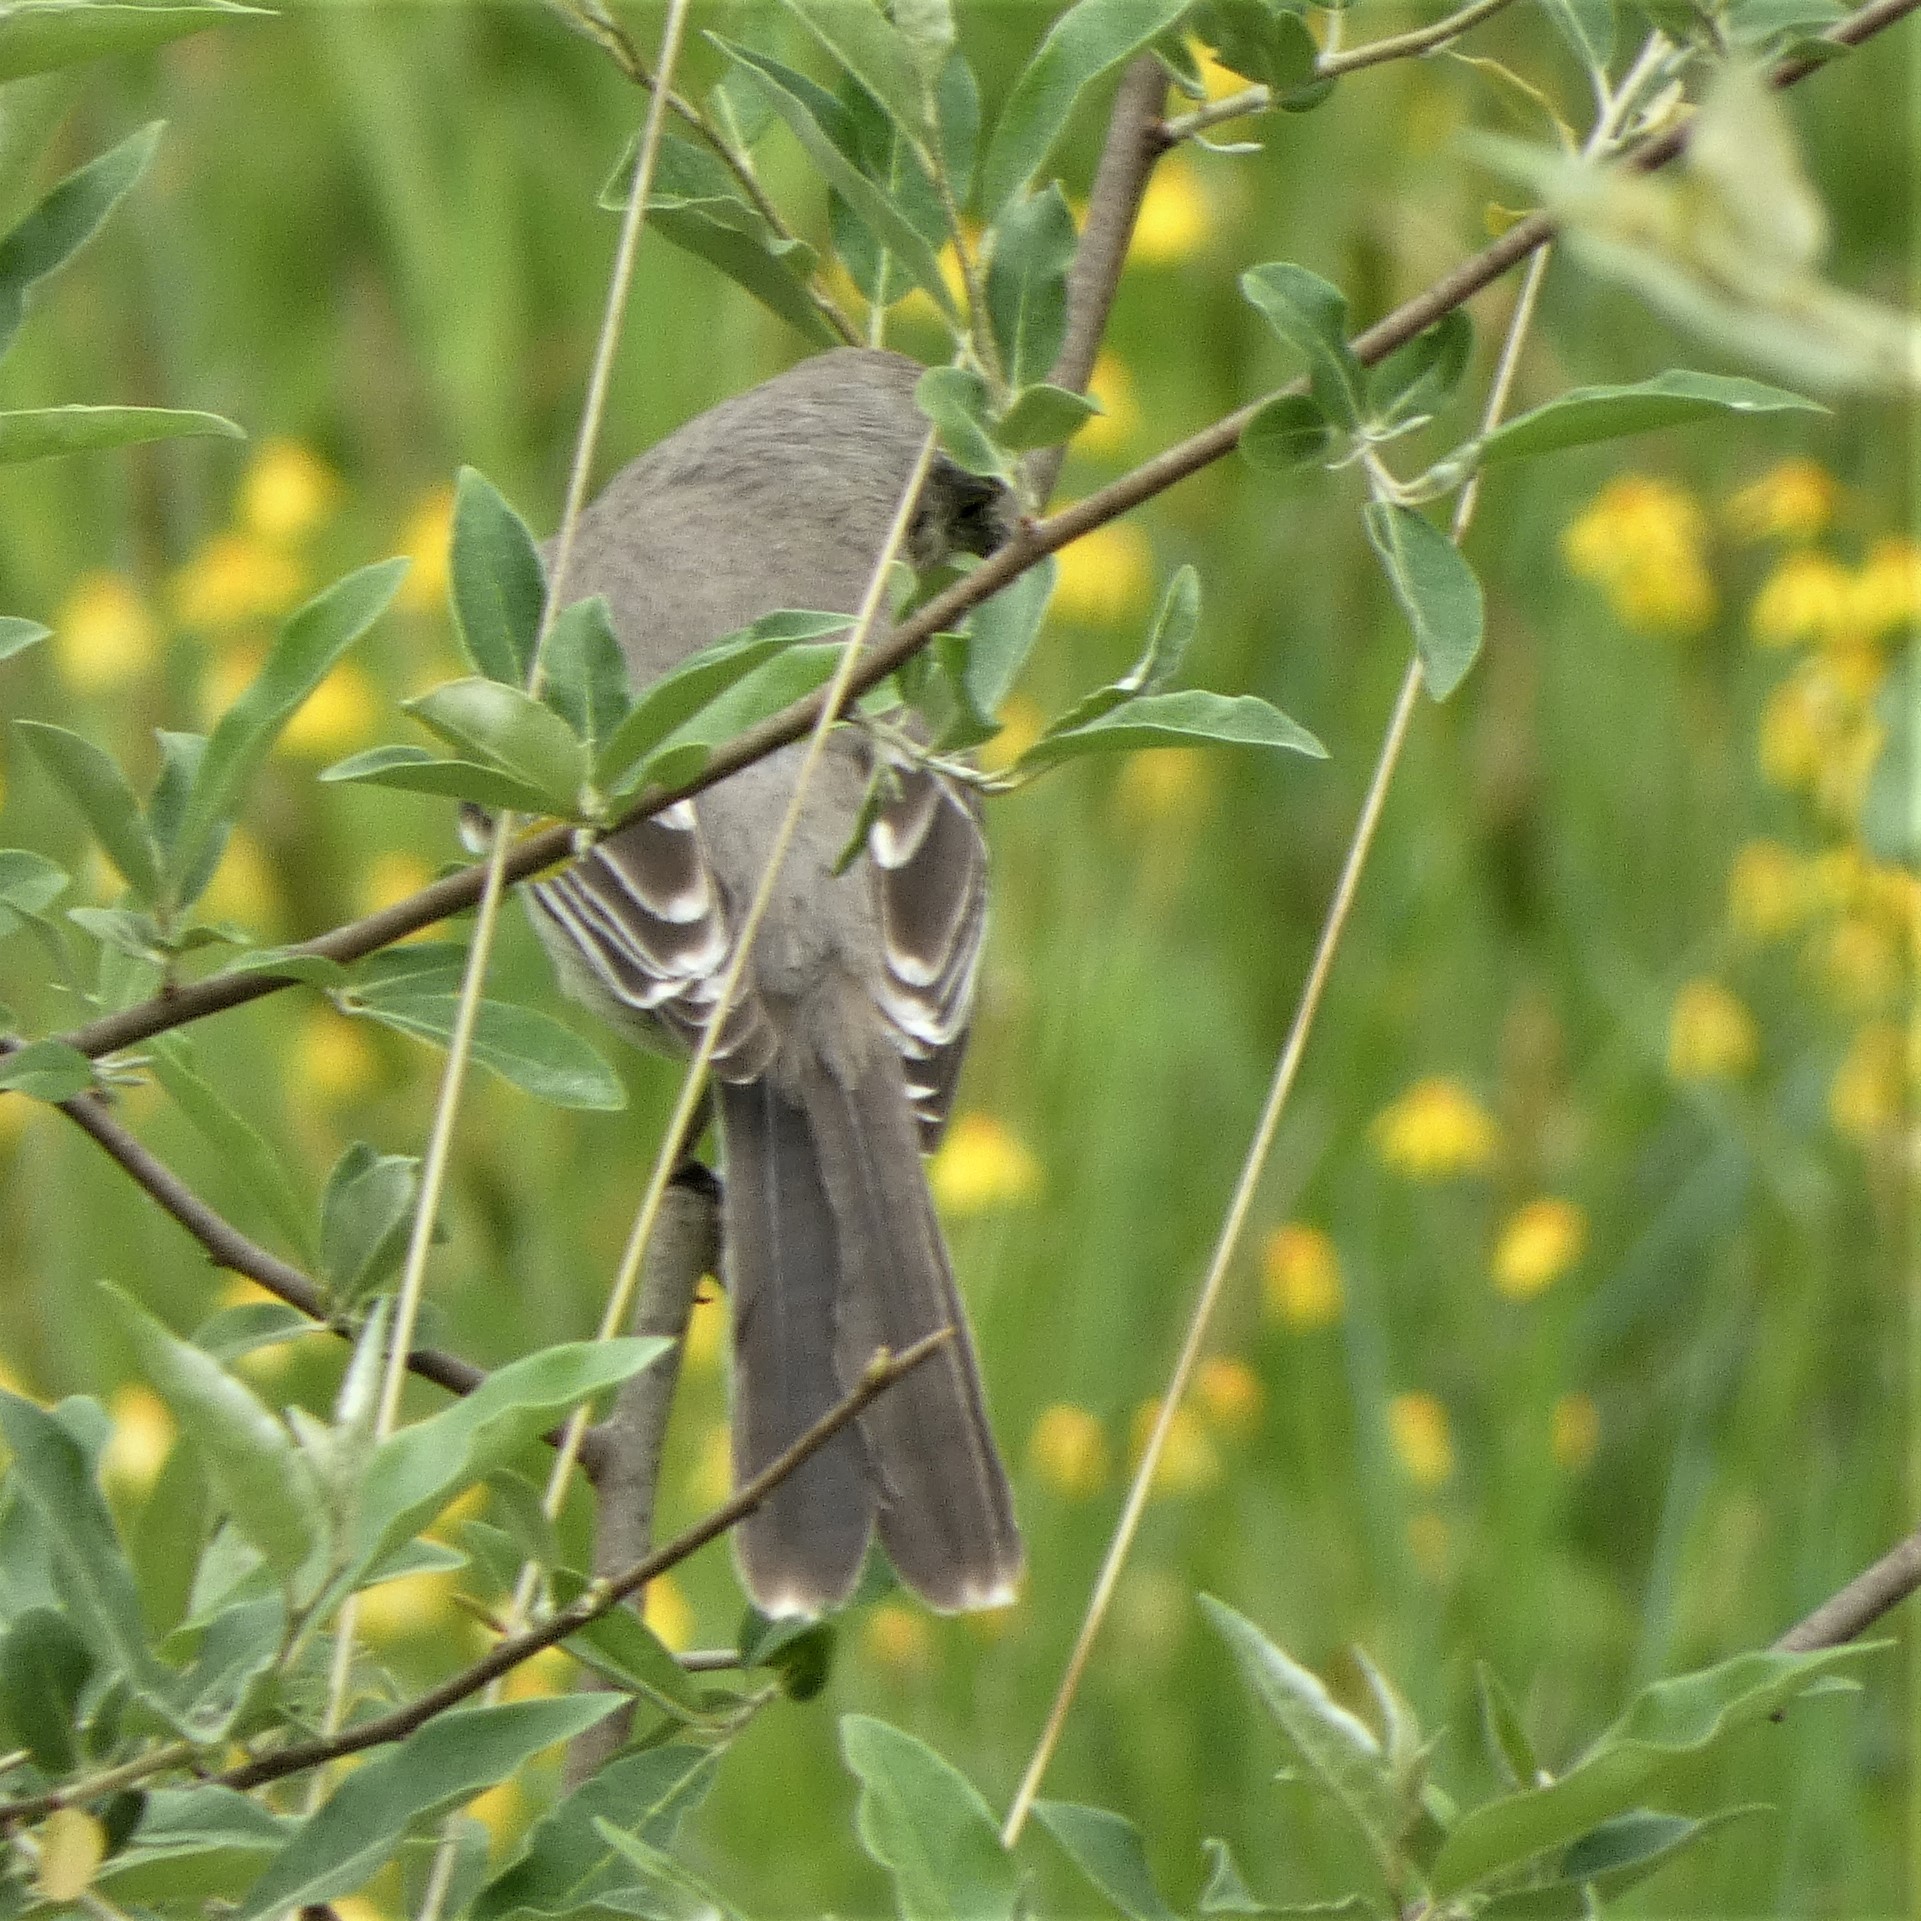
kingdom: Animalia
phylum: Chordata
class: Aves
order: Passeriformes
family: Mimidae
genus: Mimus
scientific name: Mimus polyglottos
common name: Northern mockingbird
